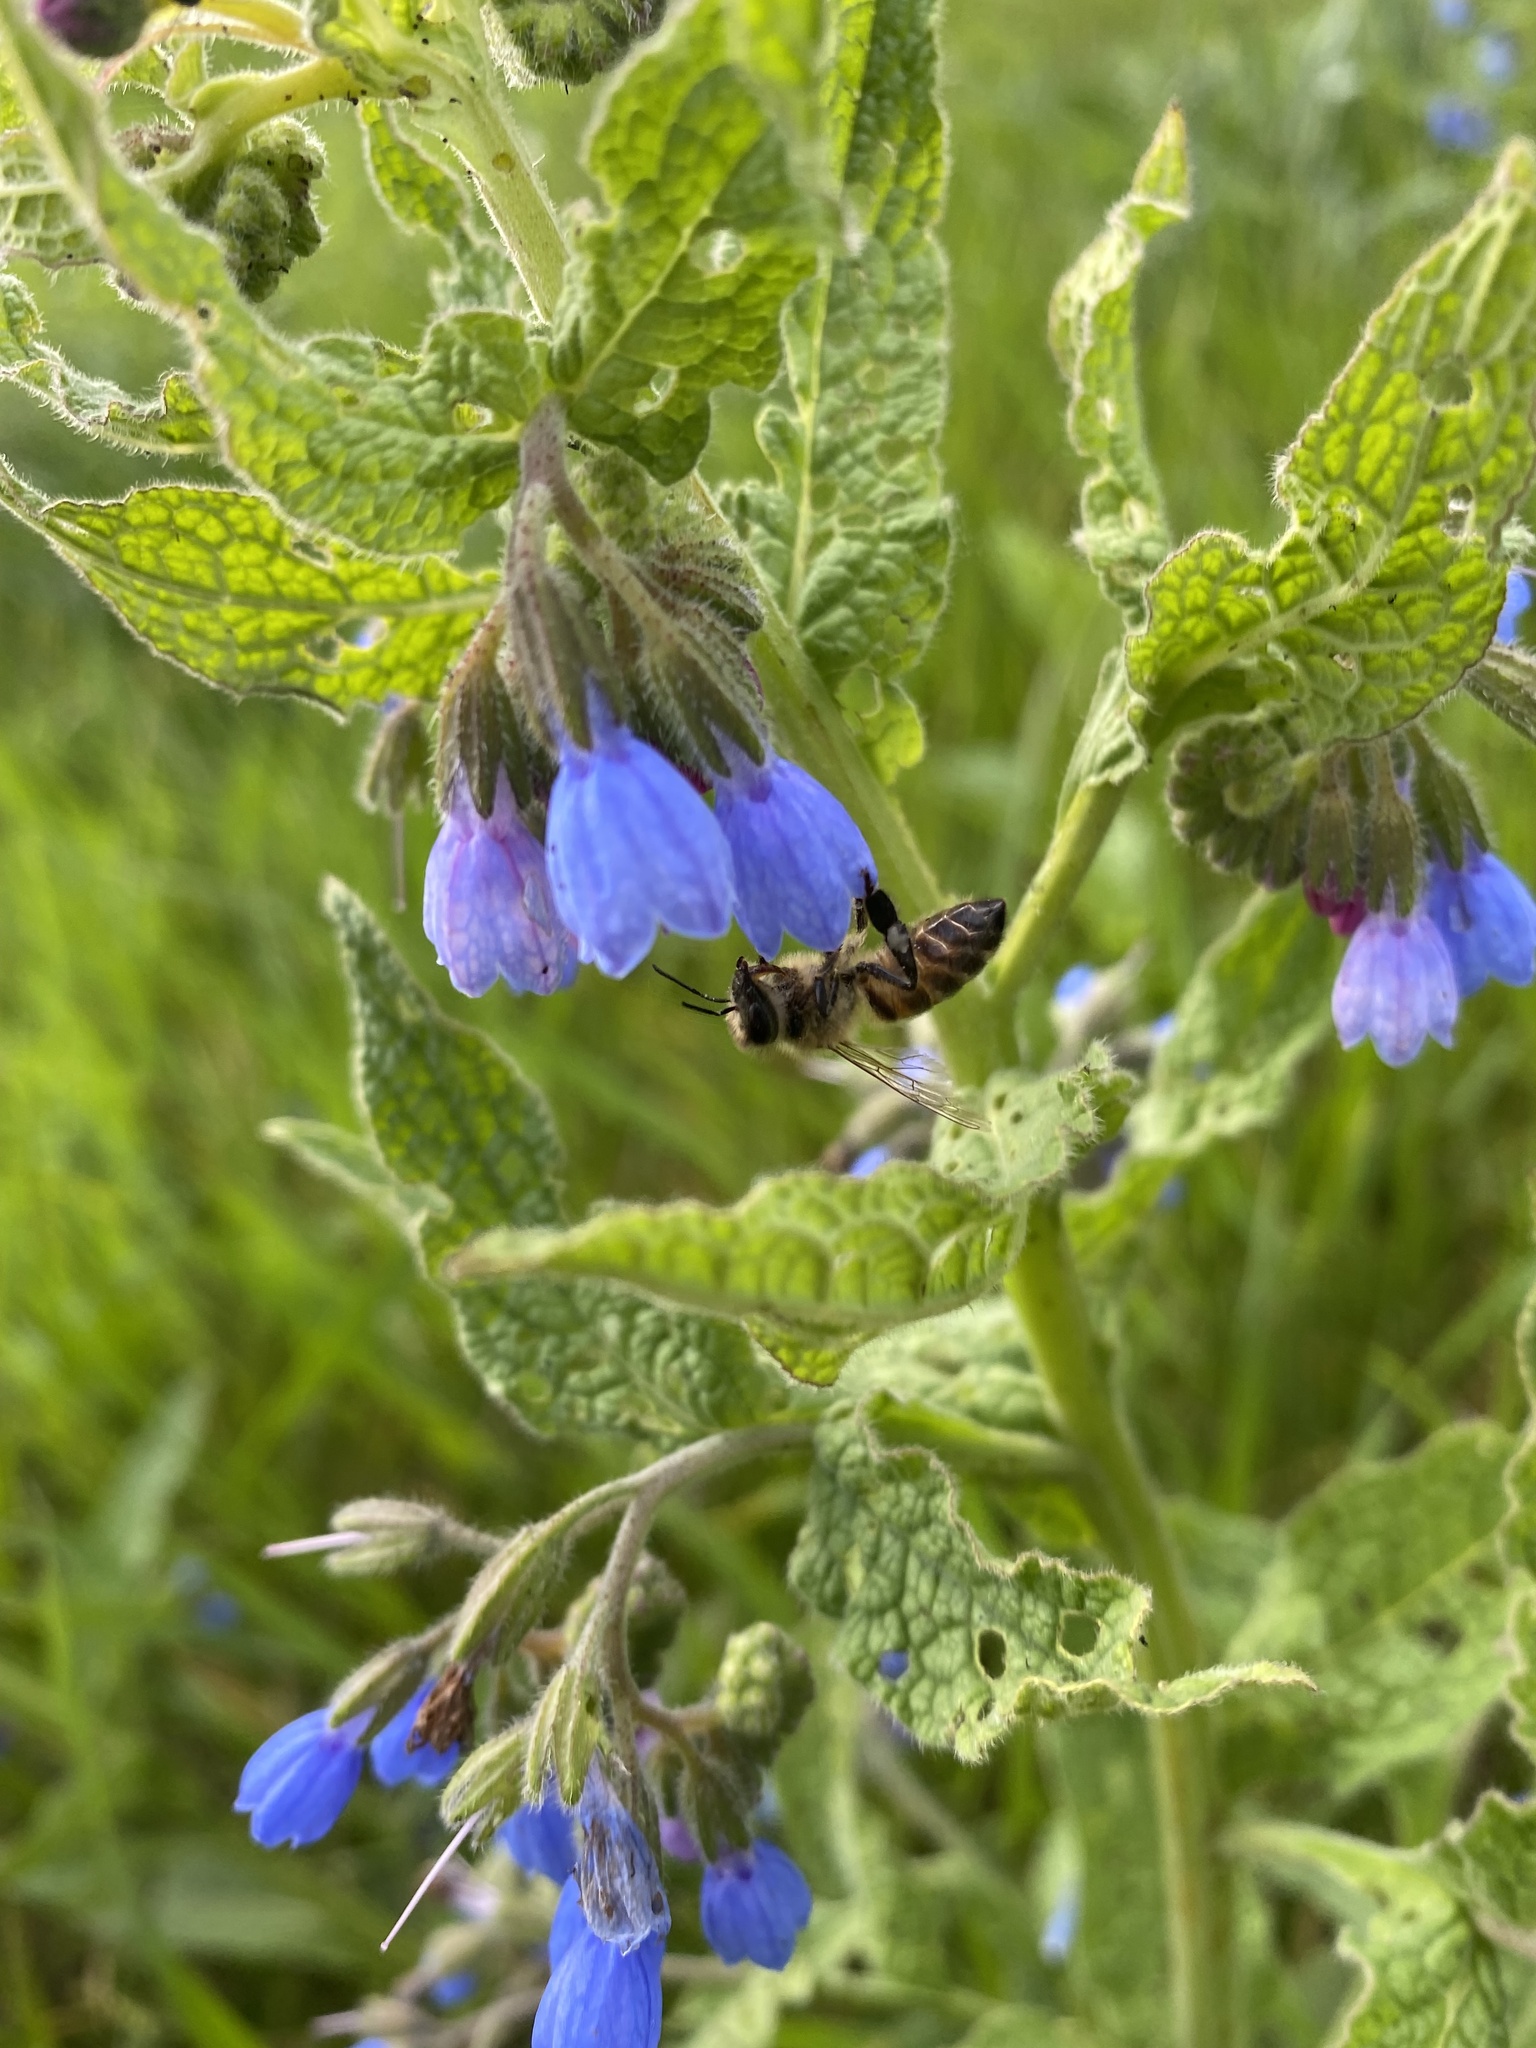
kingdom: Animalia
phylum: Arthropoda
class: Insecta
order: Hymenoptera
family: Apidae
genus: Apis
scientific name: Apis mellifera
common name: Honey bee
